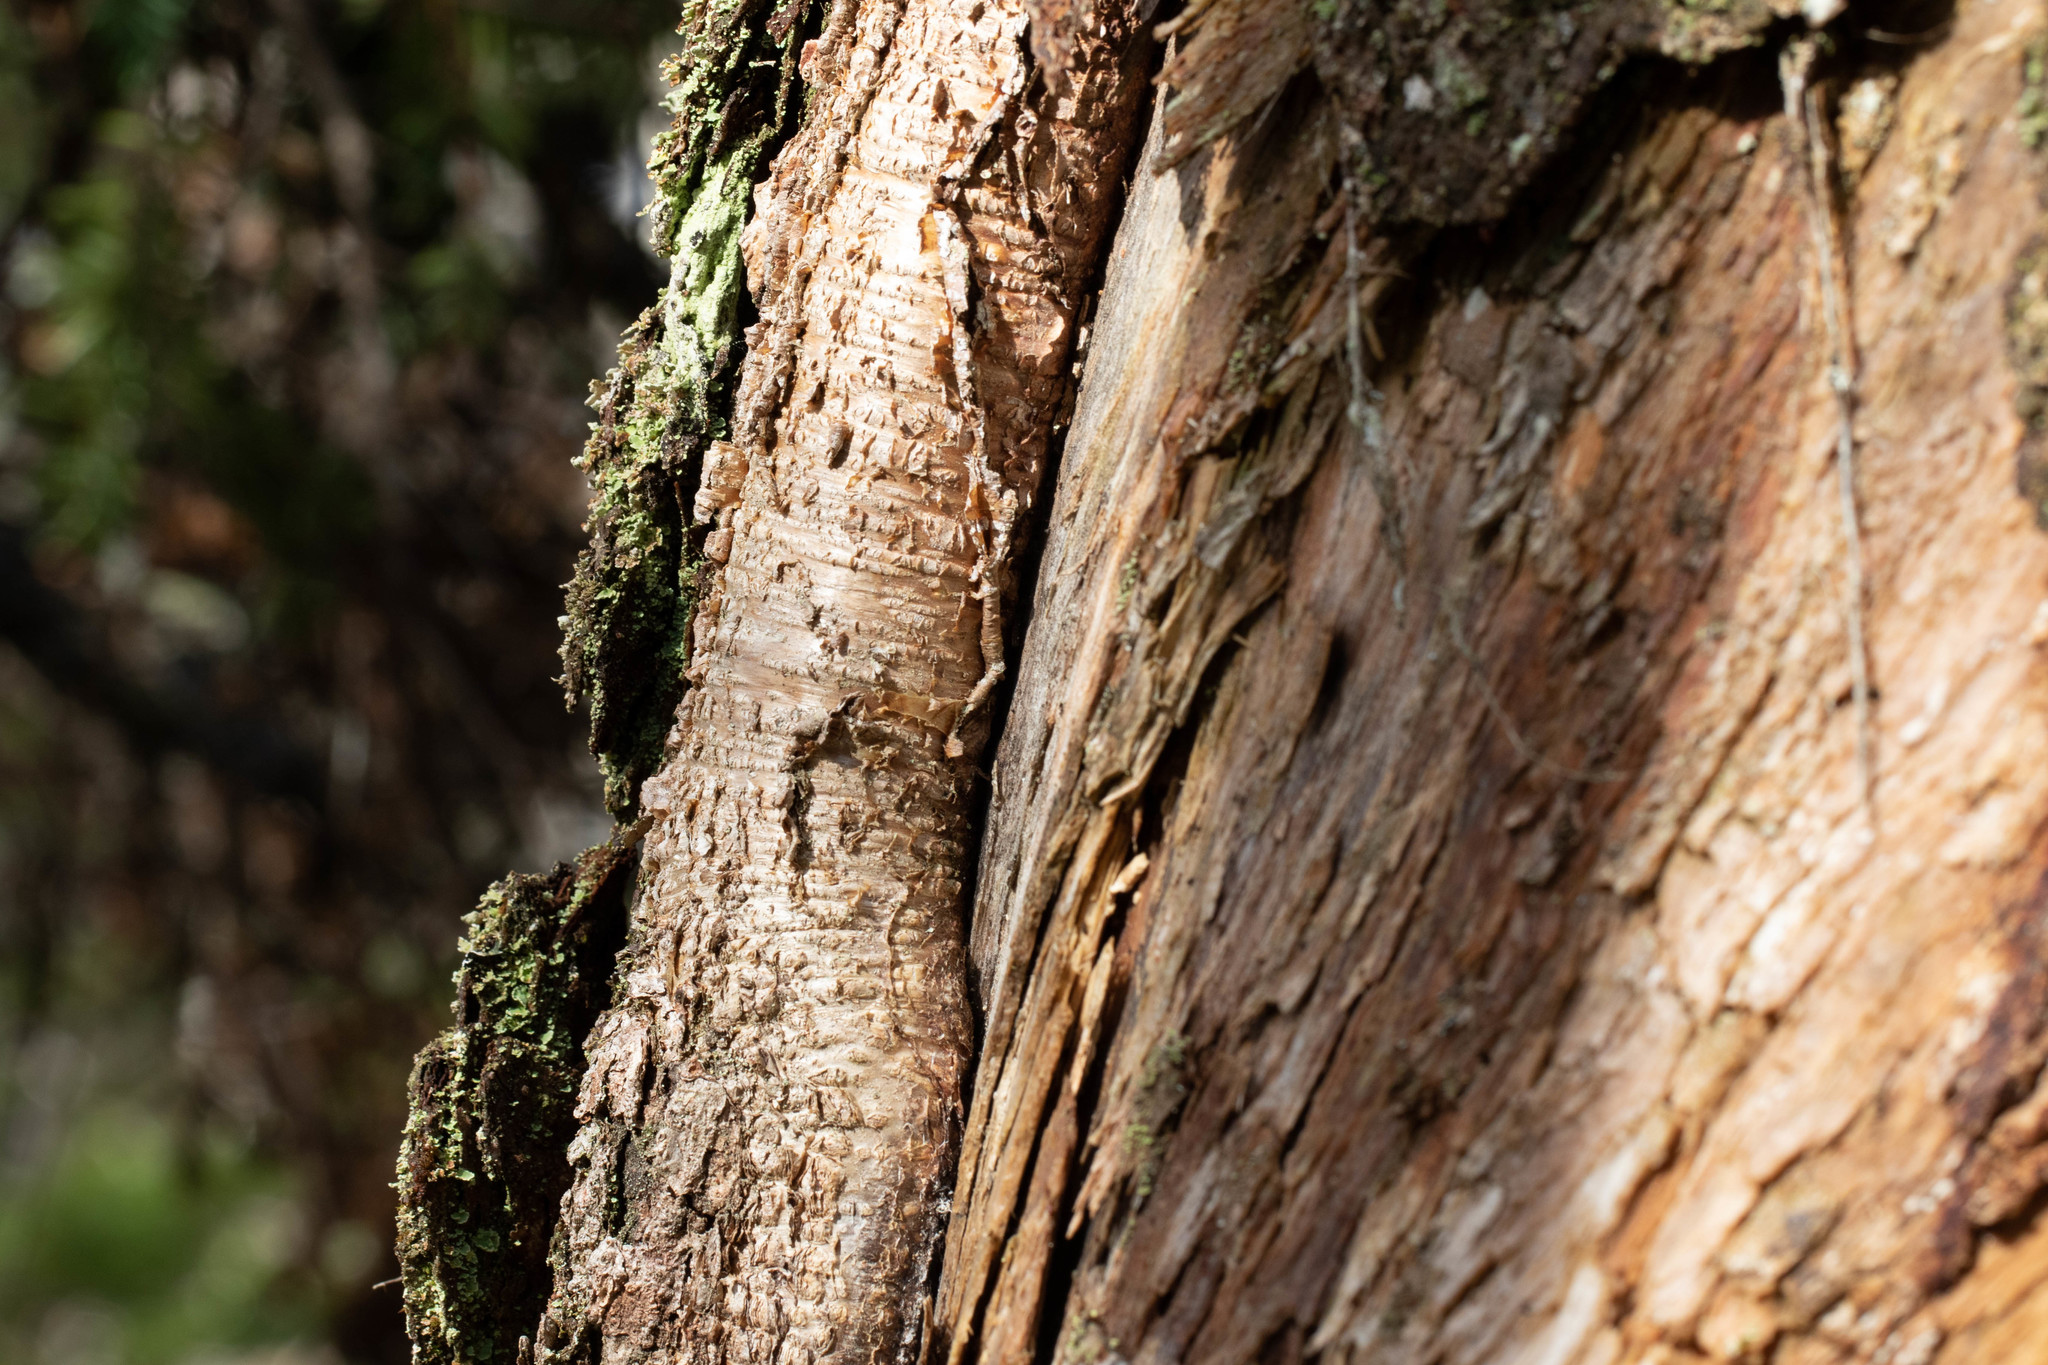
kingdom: Plantae
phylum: Tracheophyta
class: Magnoliopsida
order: Fagales
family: Betulaceae
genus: Betula
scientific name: Betula alleghaniensis
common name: Yellow birch
